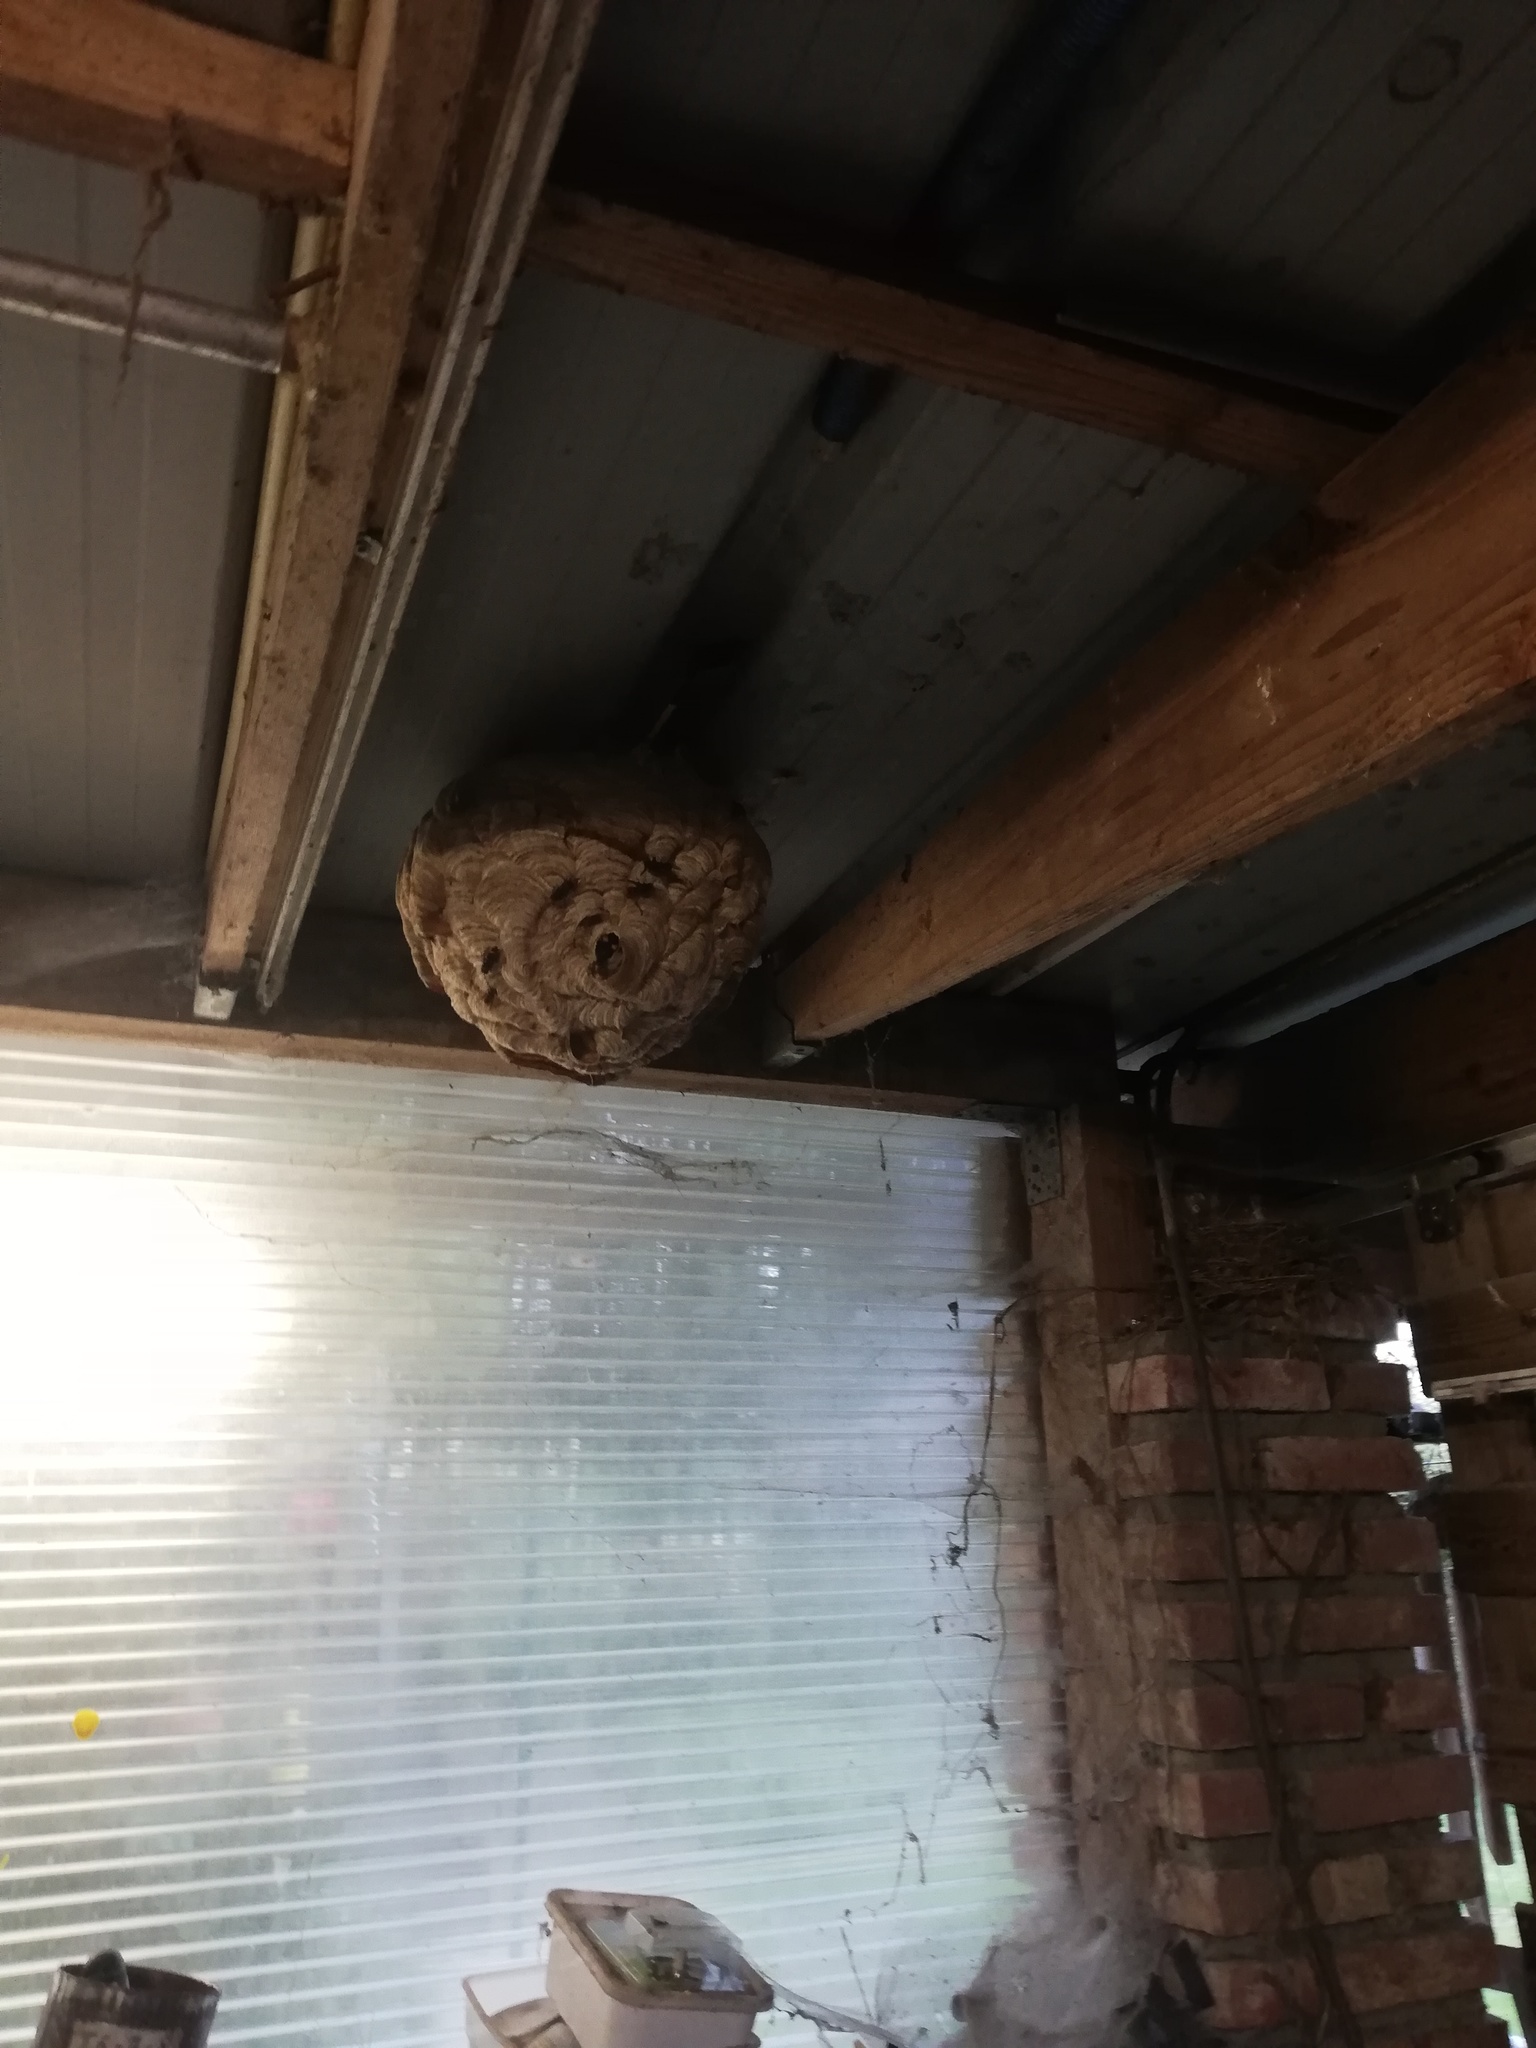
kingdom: Animalia
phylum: Arthropoda
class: Insecta
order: Hymenoptera
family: Vespidae
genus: Vespa
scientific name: Vespa velutina
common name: Asian hornet
